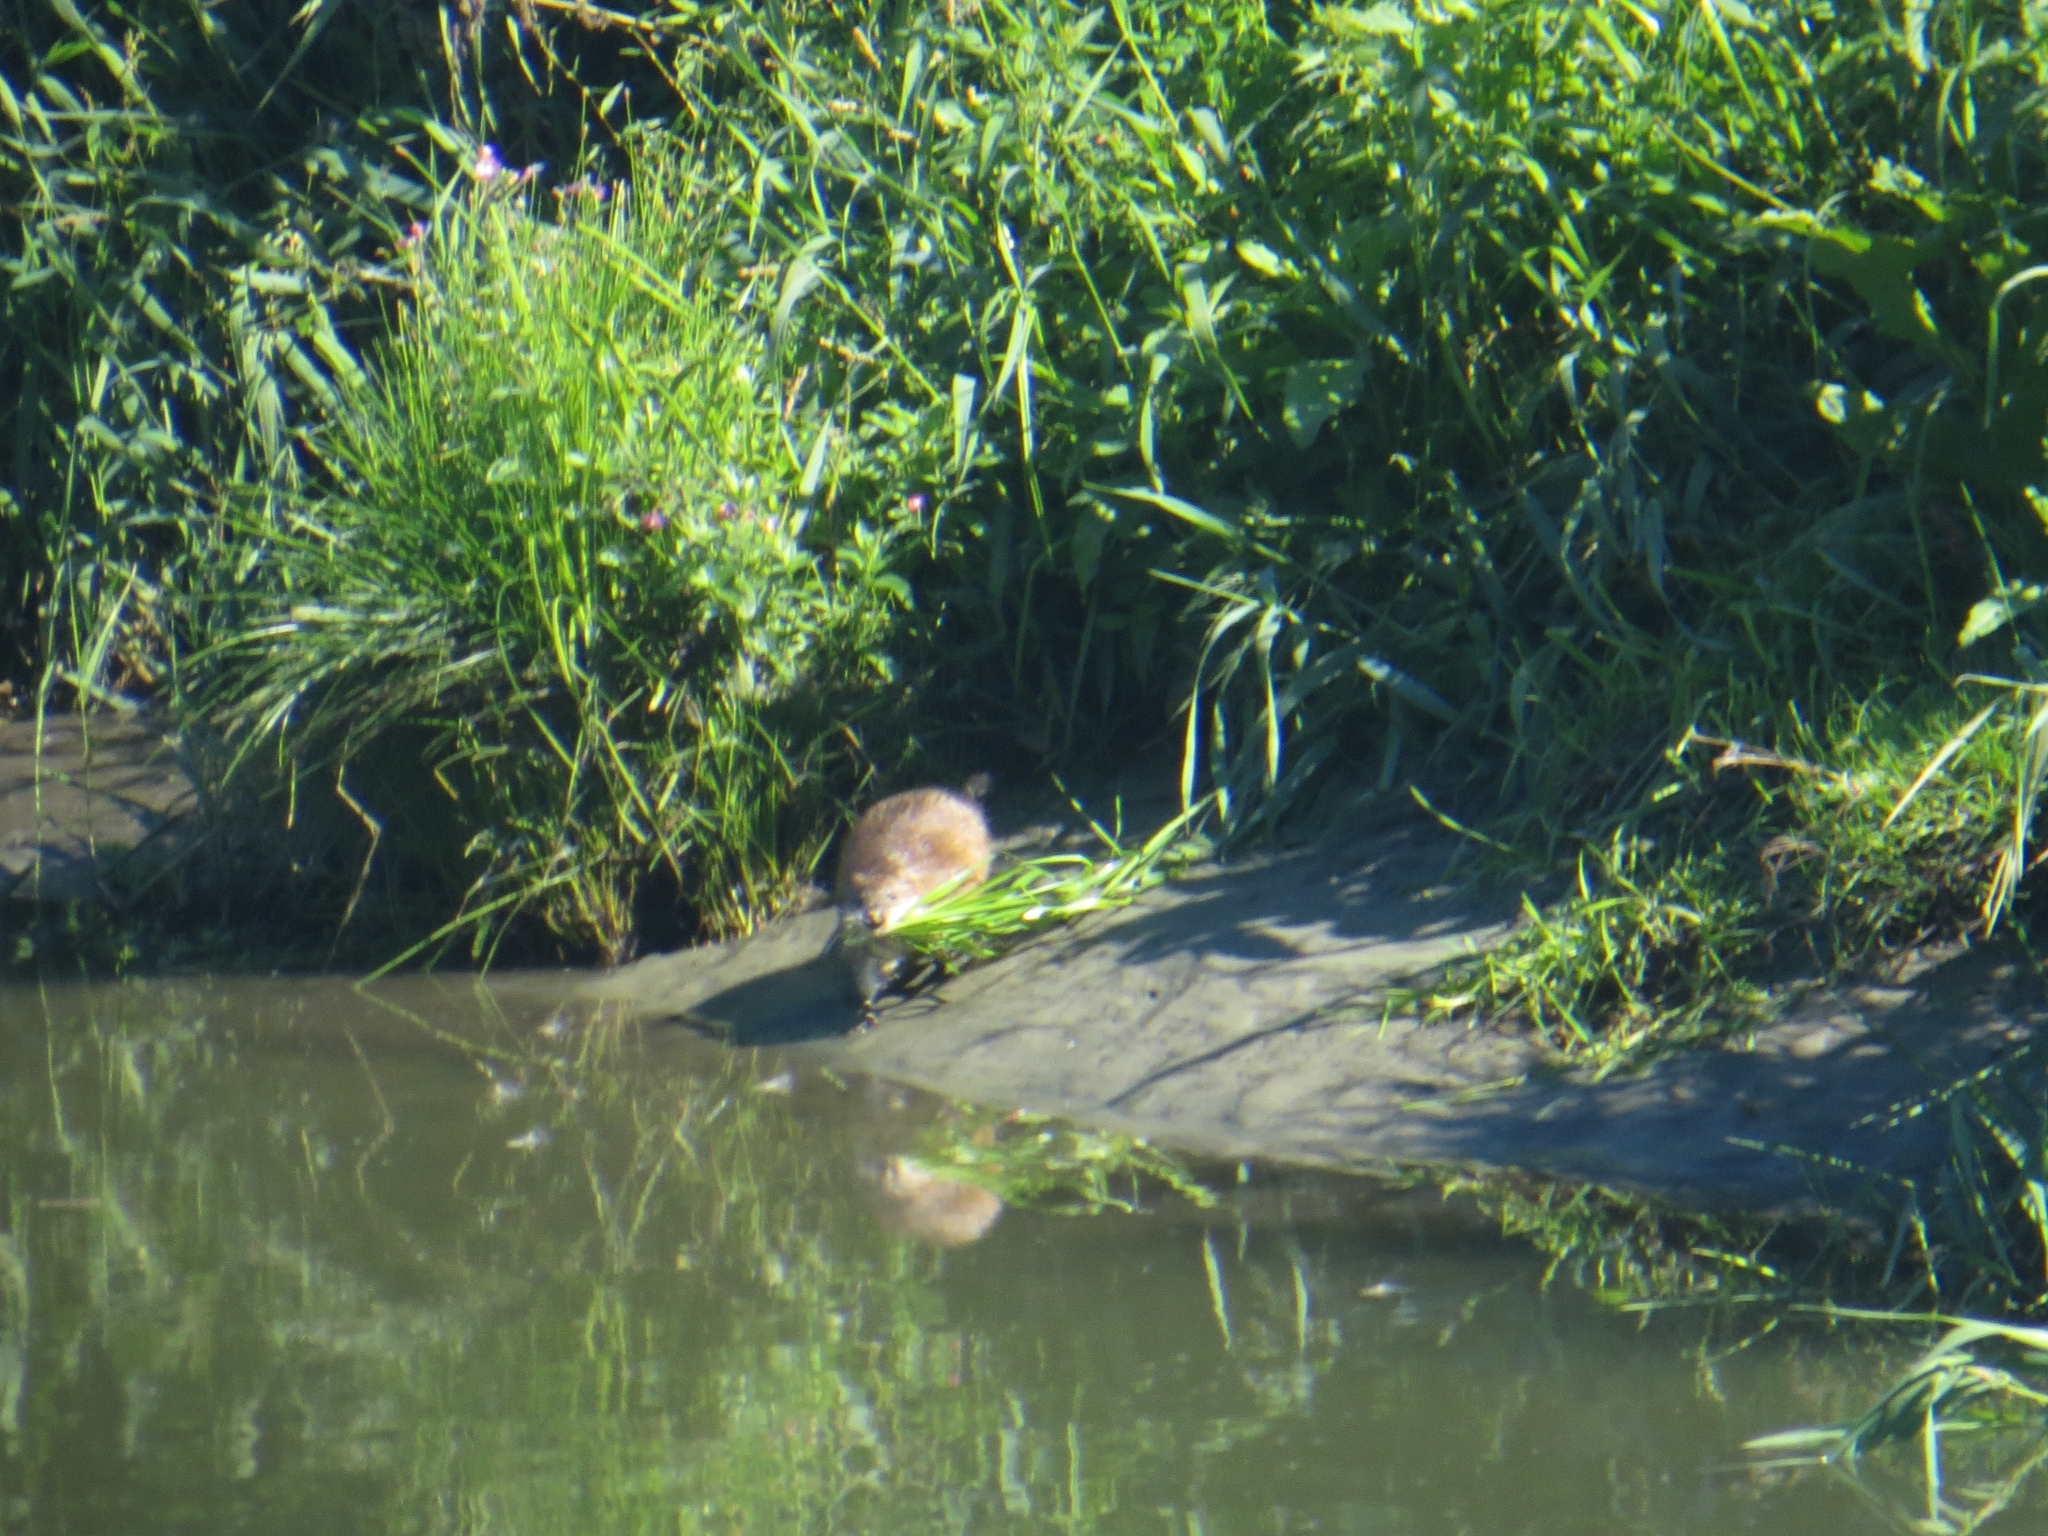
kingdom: Animalia
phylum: Chordata
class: Mammalia
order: Rodentia
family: Cricetidae
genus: Ondatra
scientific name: Ondatra zibethicus
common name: Muskrat
